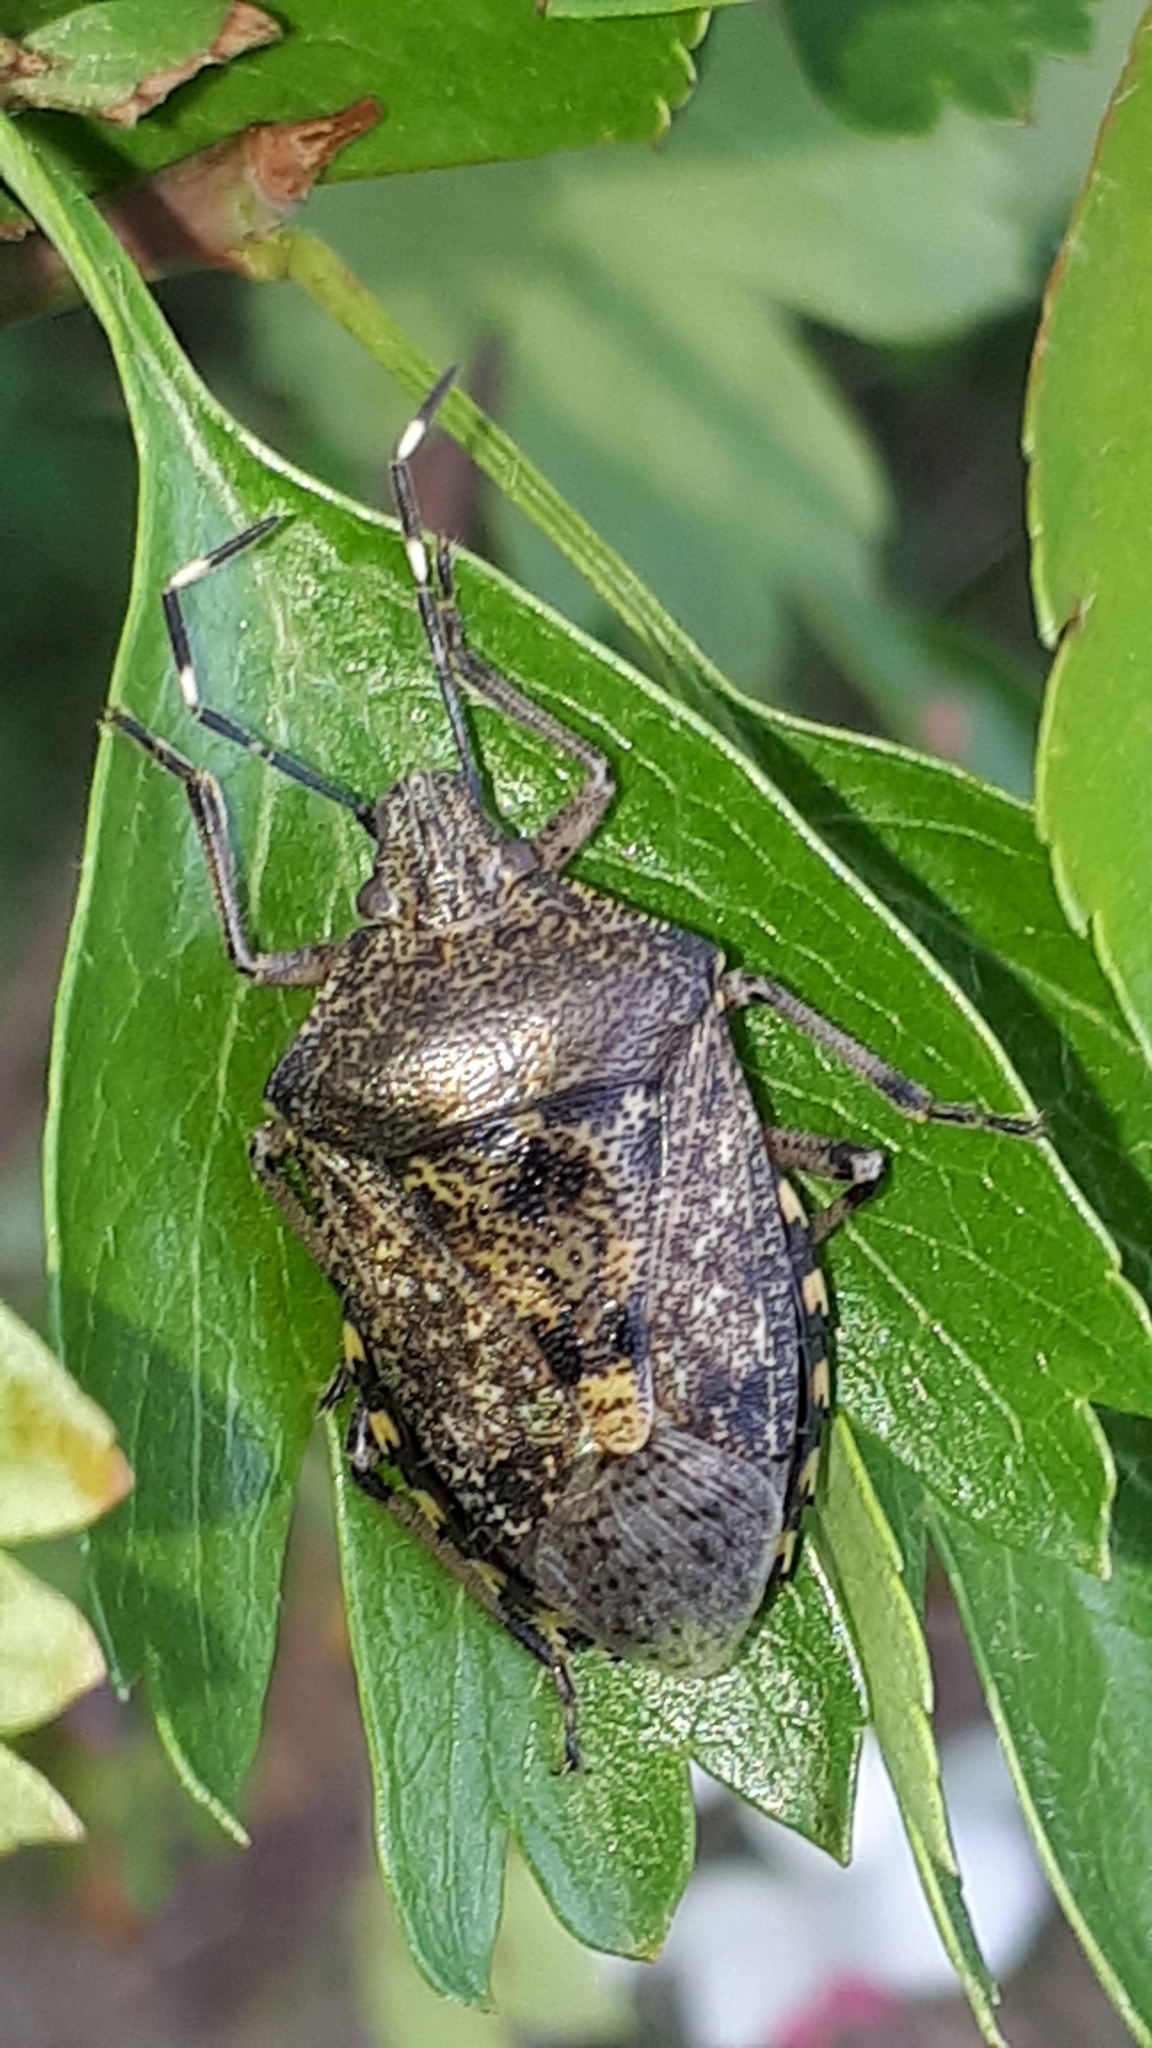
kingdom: Animalia
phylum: Arthropoda
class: Insecta
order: Hemiptera
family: Pentatomidae
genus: Rhaphigaster
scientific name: Rhaphigaster nebulosa
